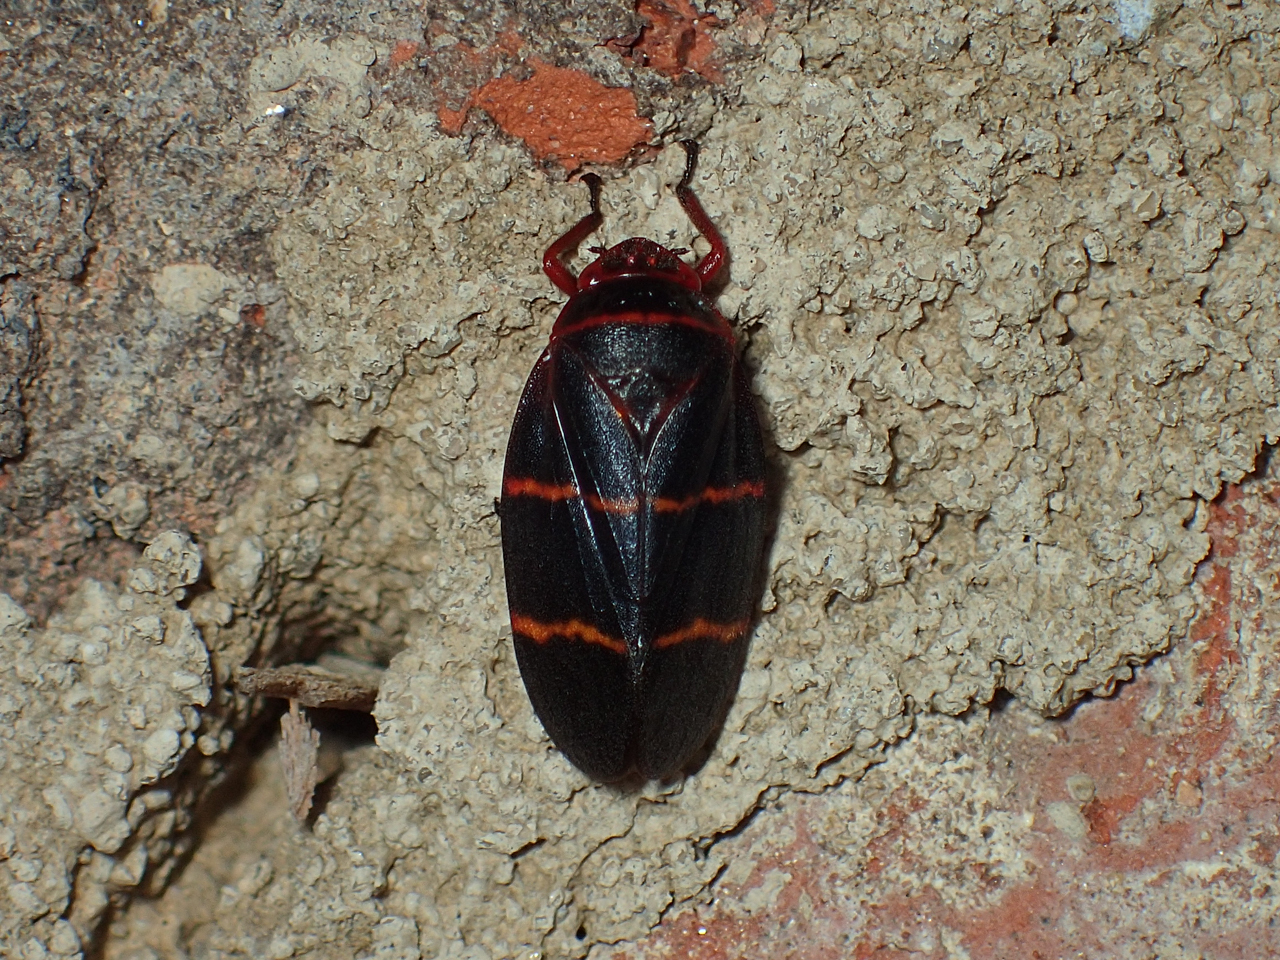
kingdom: Animalia
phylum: Arthropoda
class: Insecta
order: Hemiptera
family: Cercopidae
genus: Prosapia
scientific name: Prosapia bicincta
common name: Twolined spittlebug
